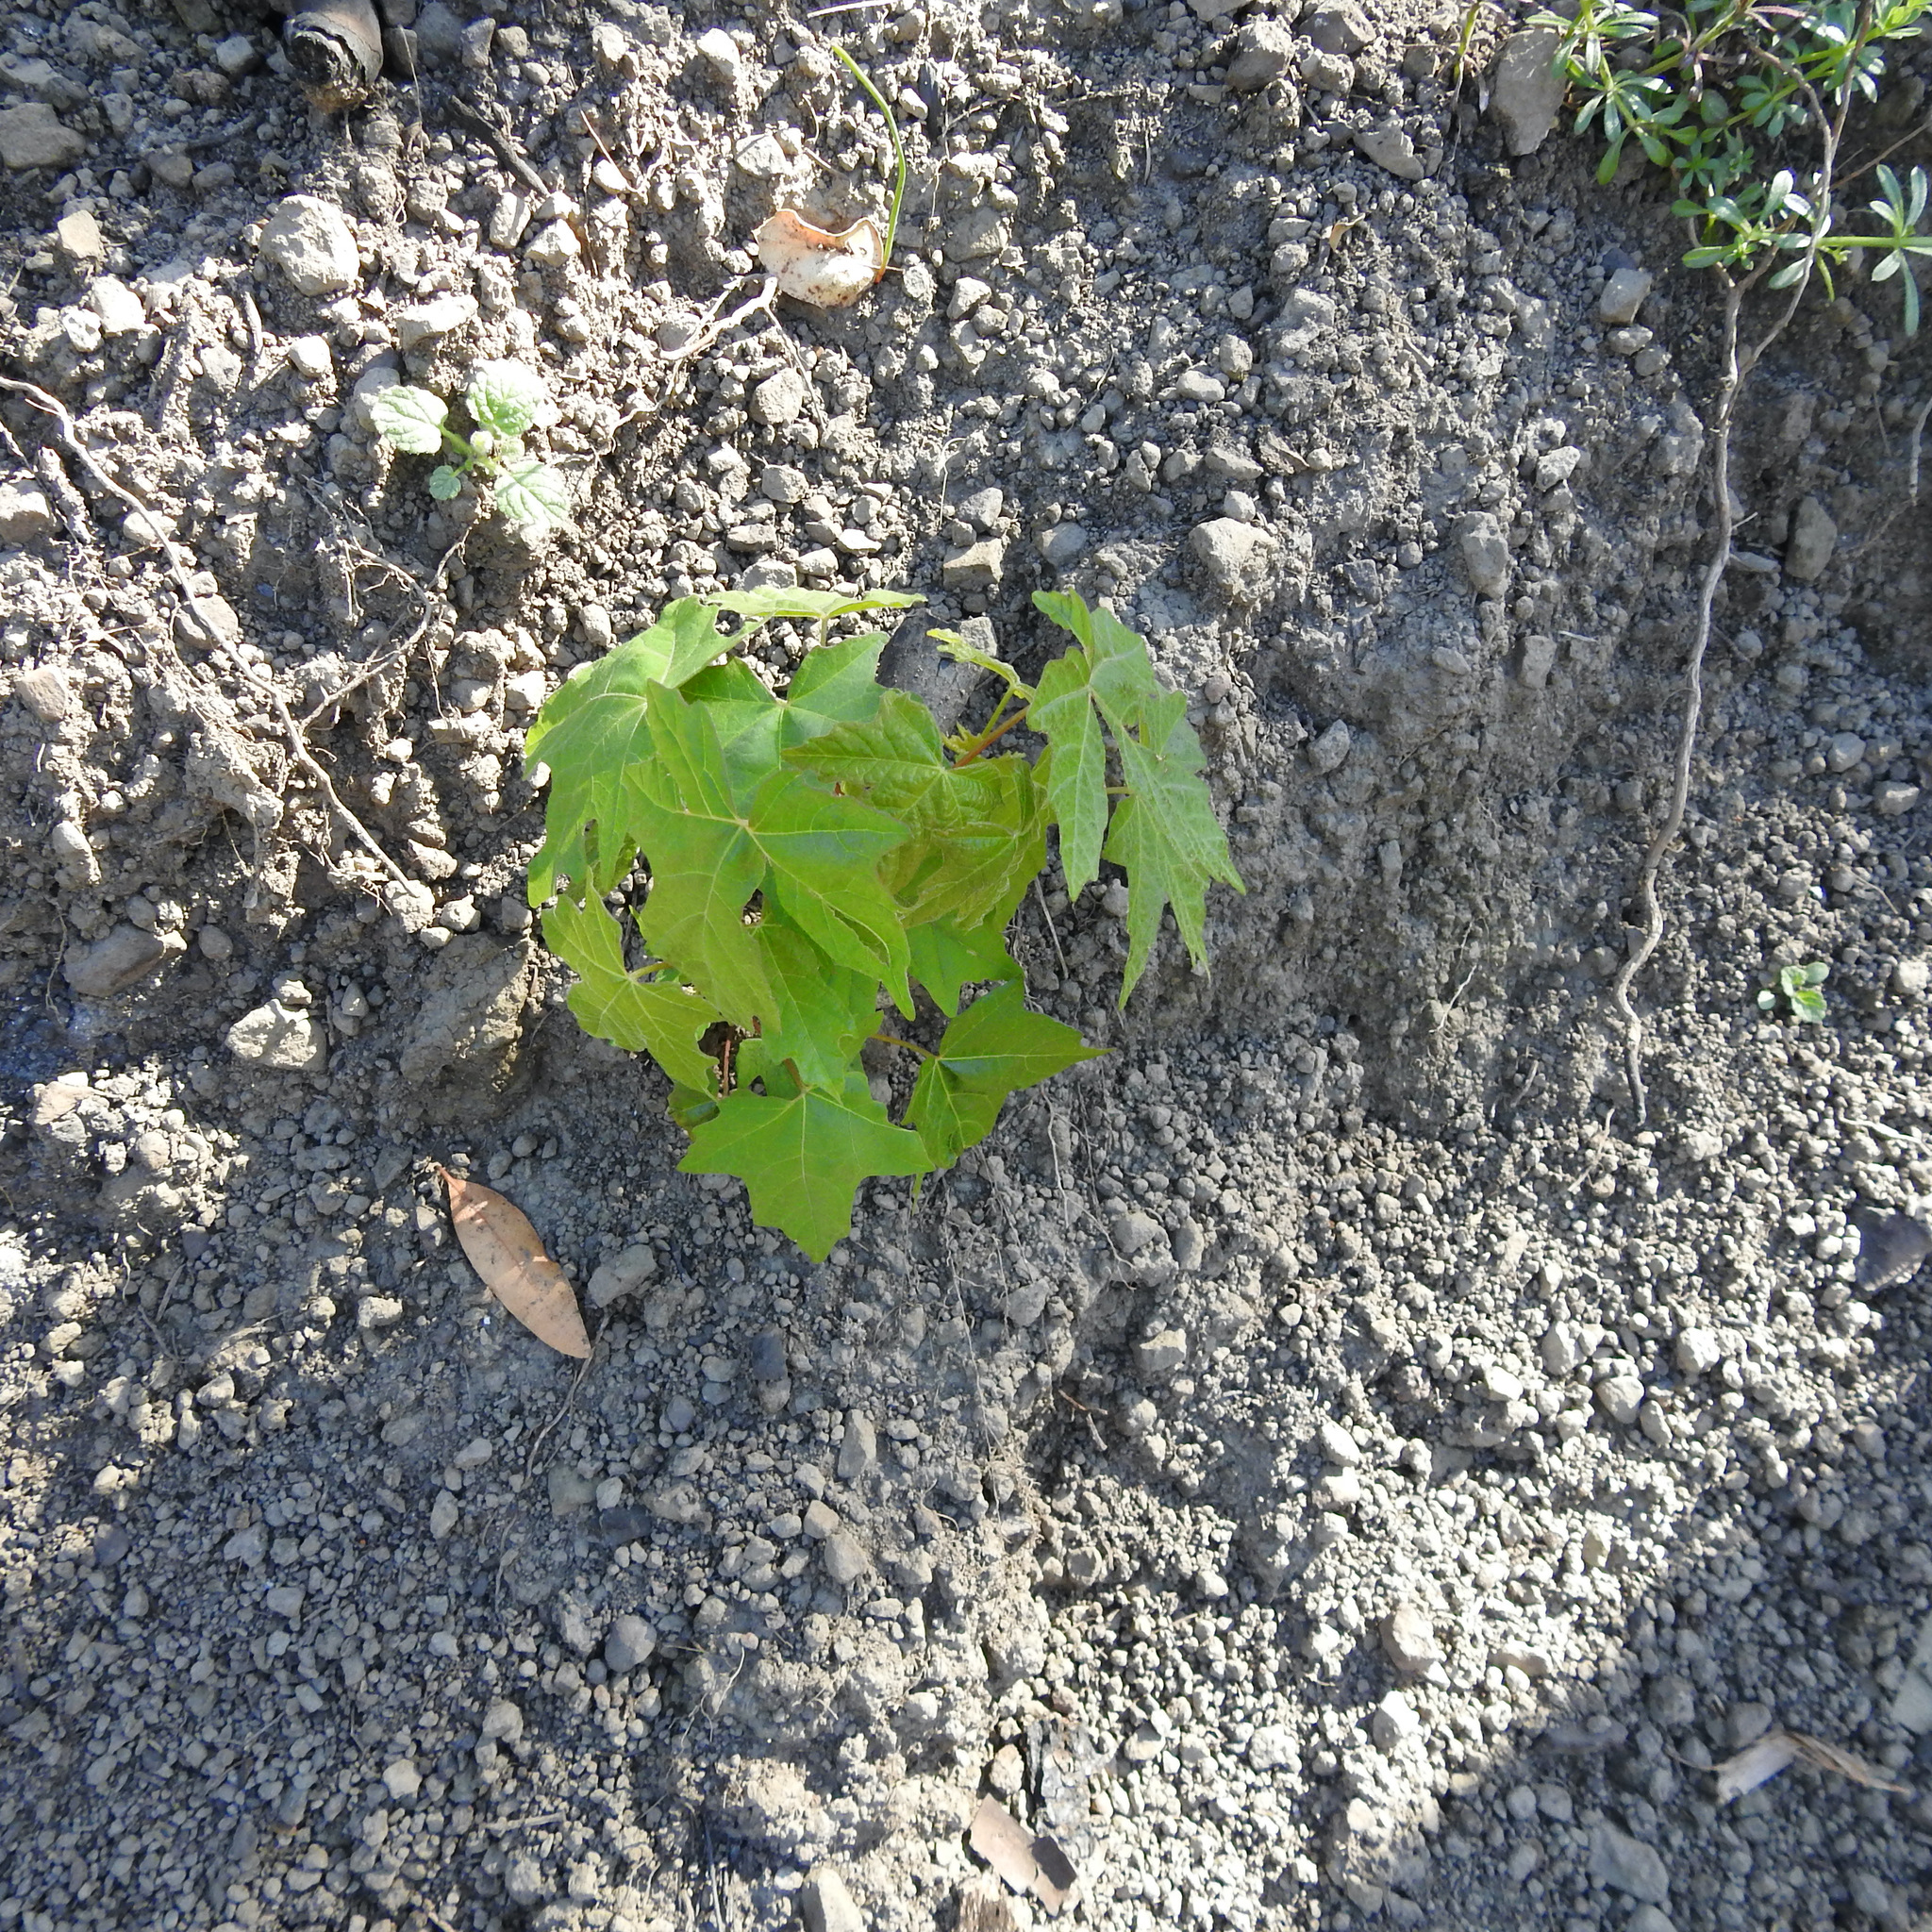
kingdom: Plantae
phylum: Tracheophyta
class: Magnoliopsida
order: Sapindales
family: Sapindaceae
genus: Acer
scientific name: Acer macrophyllum
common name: Oregon maple
